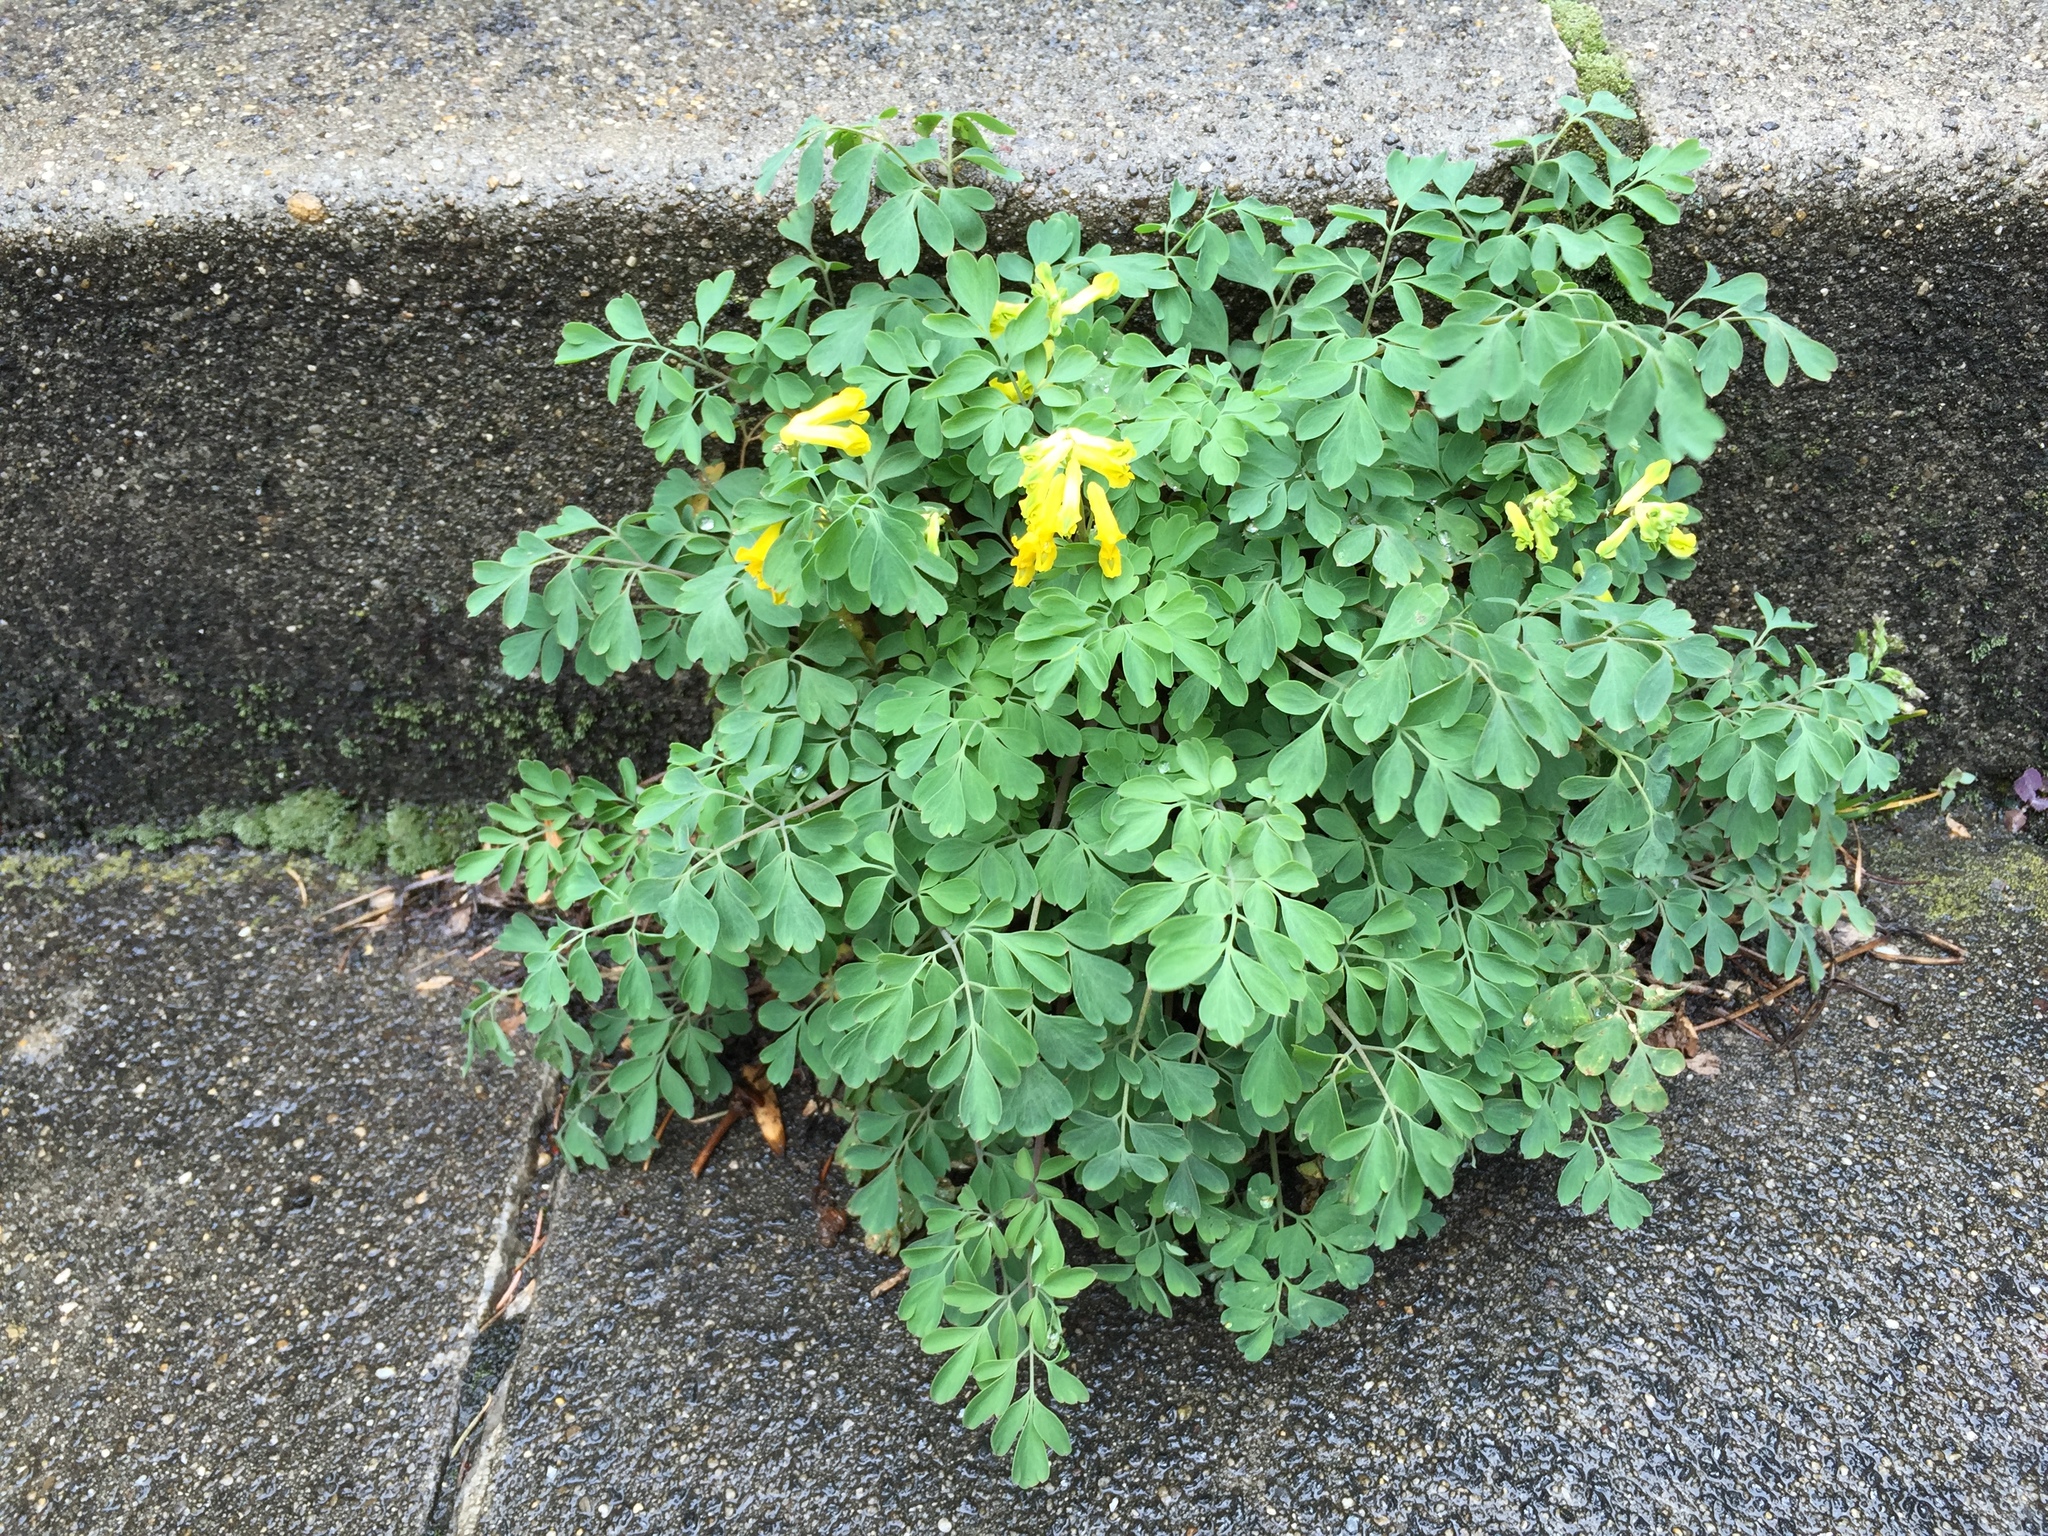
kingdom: Plantae
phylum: Tracheophyta
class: Magnoliopsida
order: Ranunculales
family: Papaveraceae
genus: Pseudofumaria
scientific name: Pseudofumaria lutea
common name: Yellow corydalis
